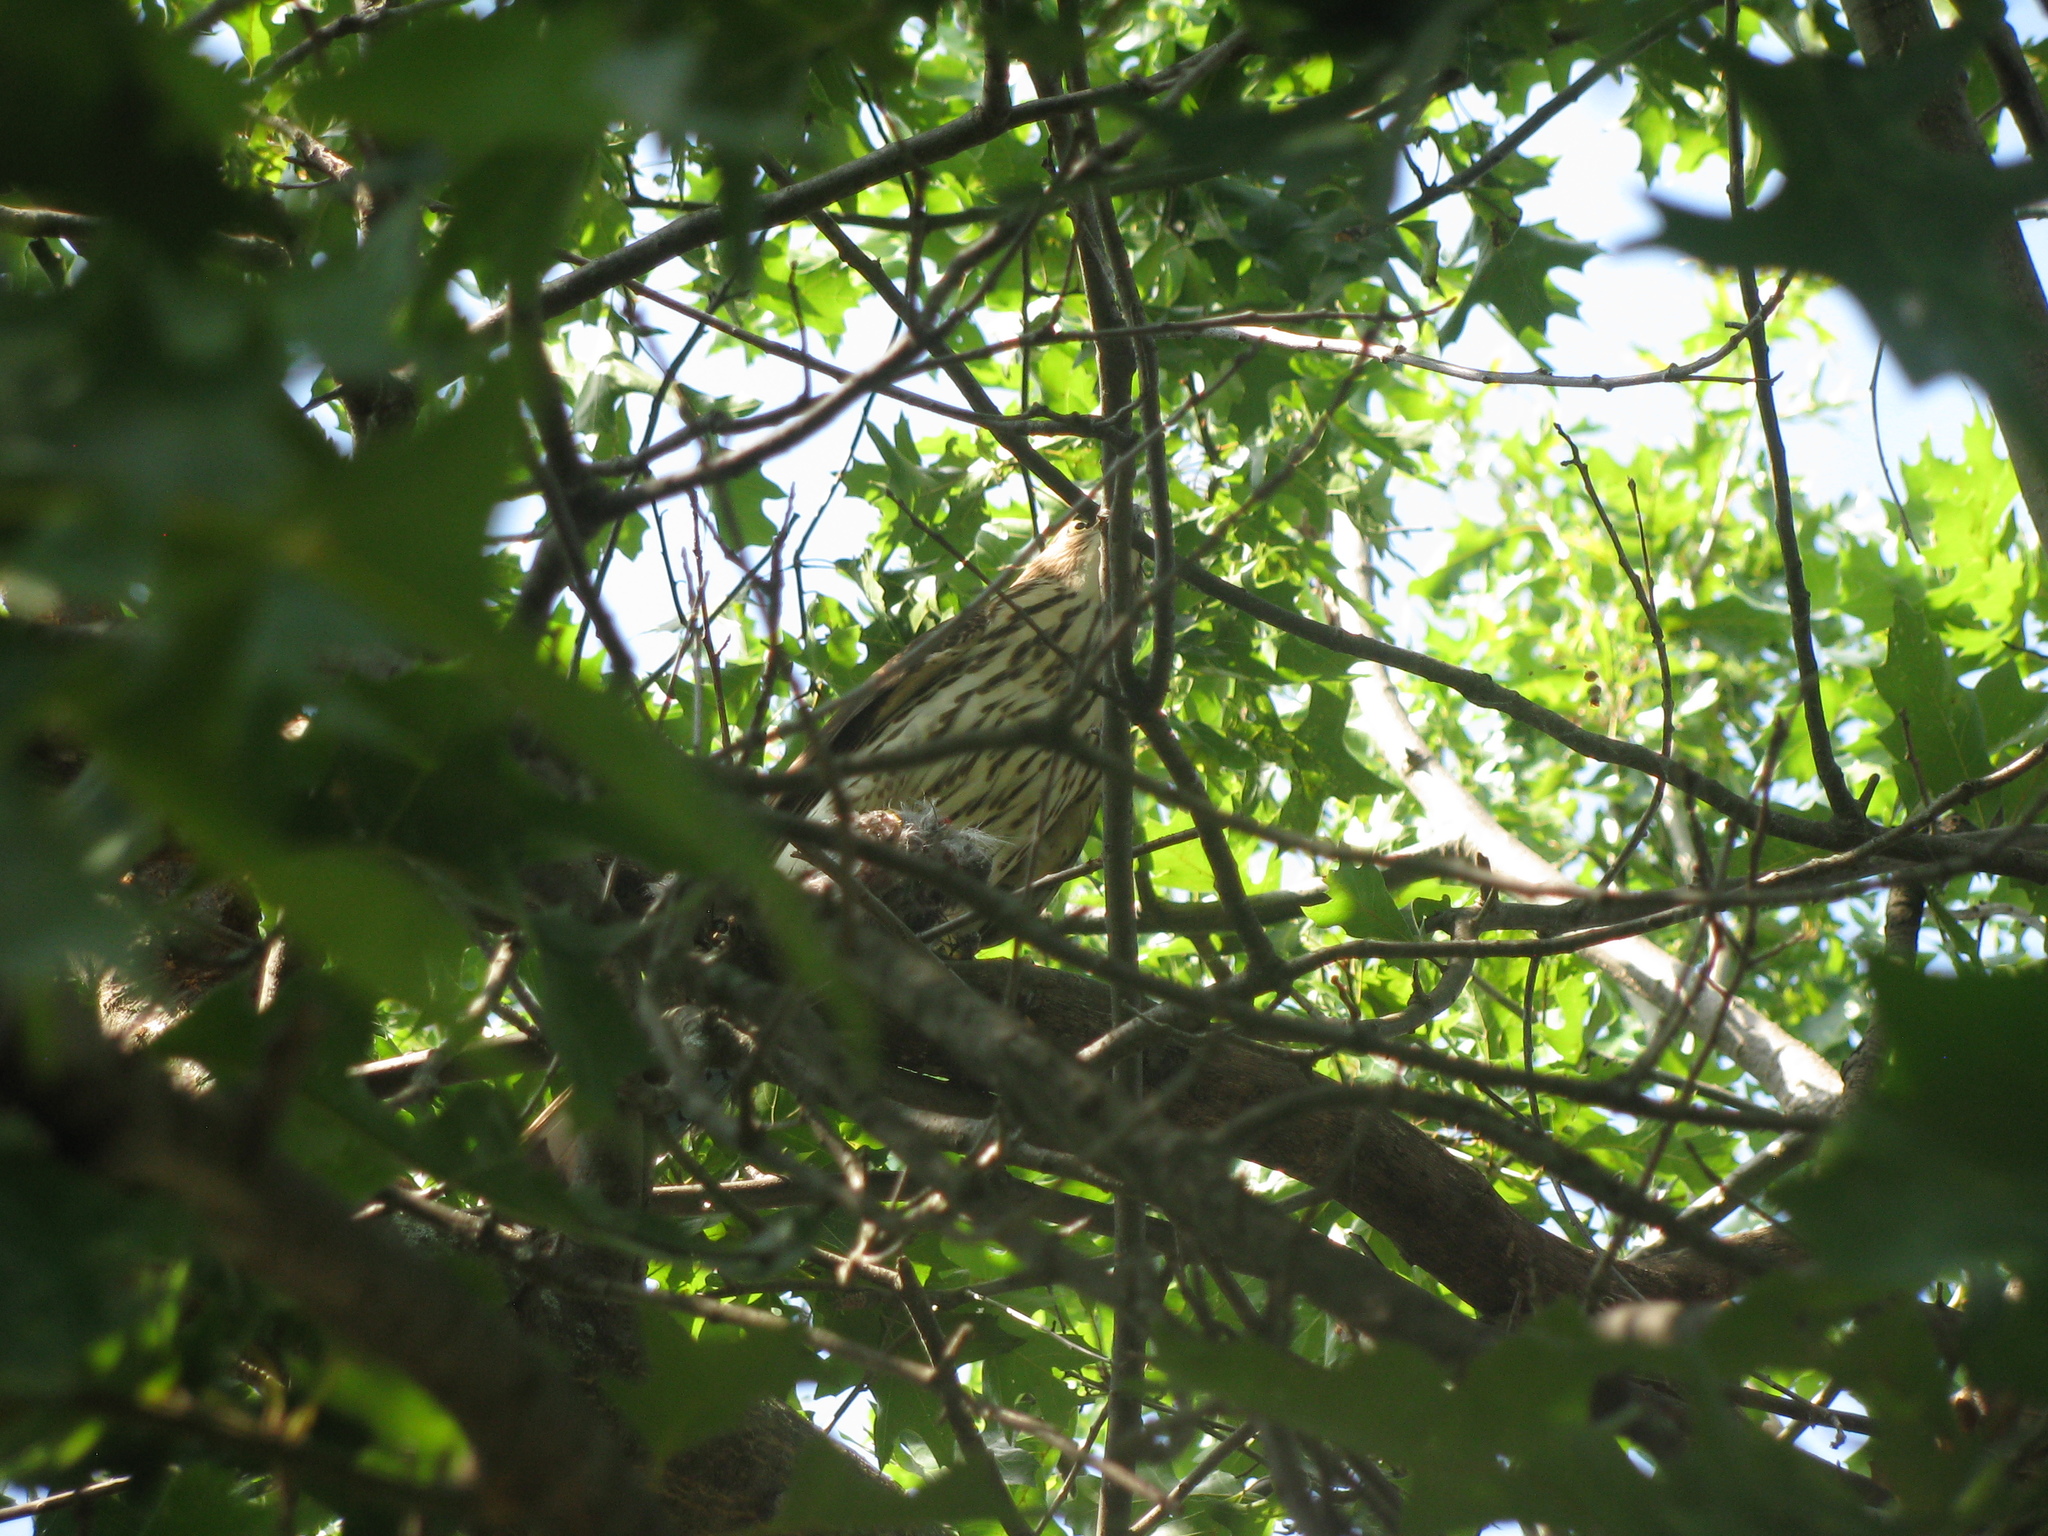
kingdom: Animalia
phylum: Chordata
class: Aves
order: Accipitriformes
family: Accipitridae
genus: Accipiter
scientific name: Accipiter cooperii
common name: Cooper's hawk
